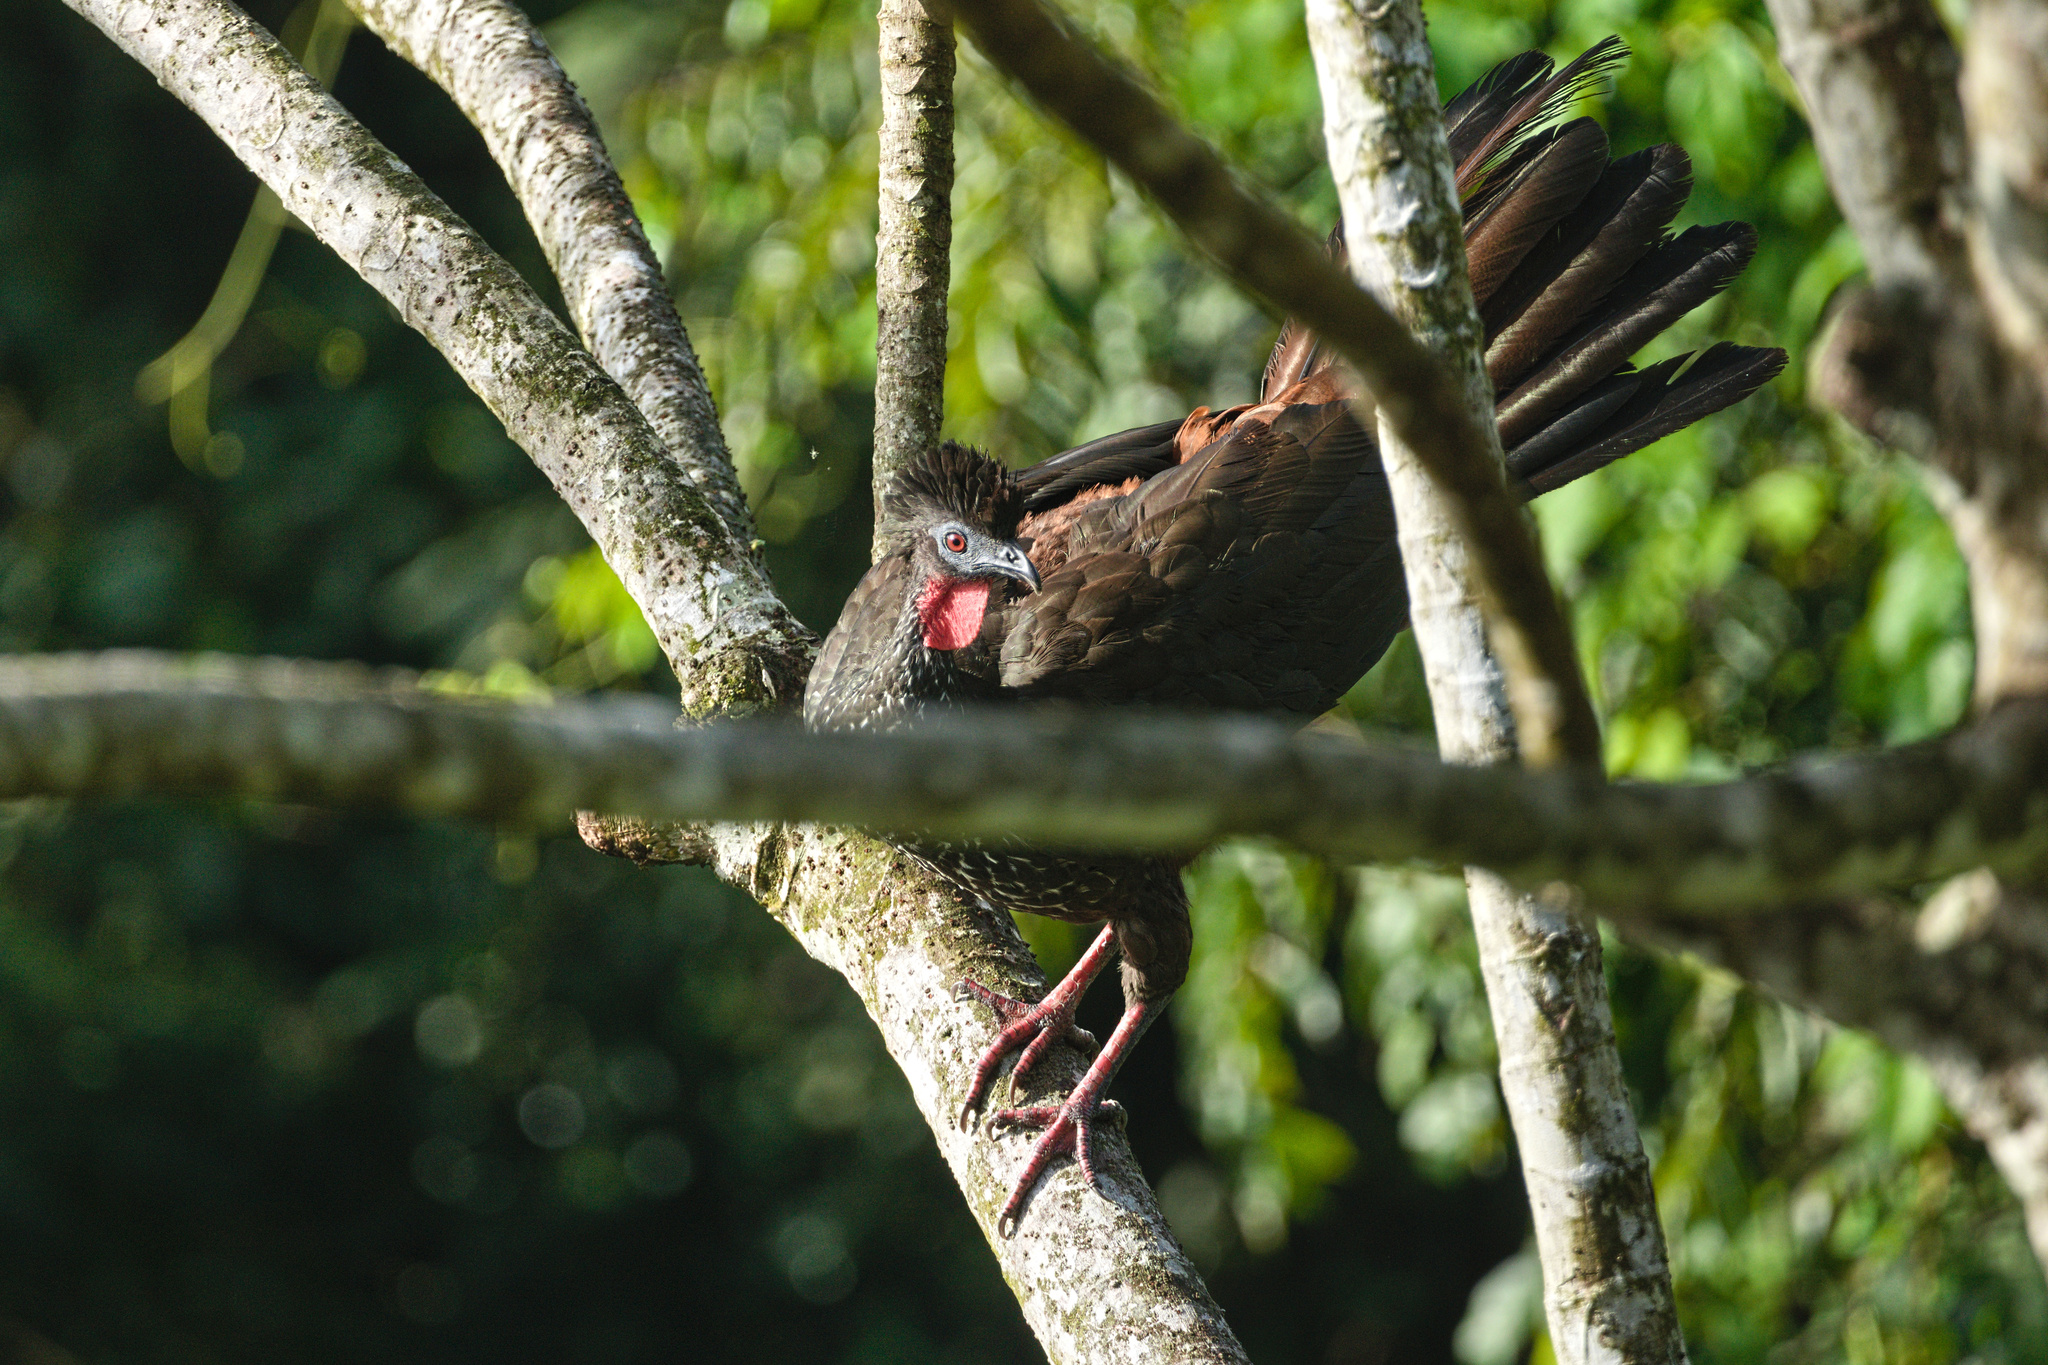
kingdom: Animalia
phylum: Chordata
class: Aves
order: Galliformes
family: Cracidae
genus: Penelope
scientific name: Penelope purpurascens
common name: Crested guan
